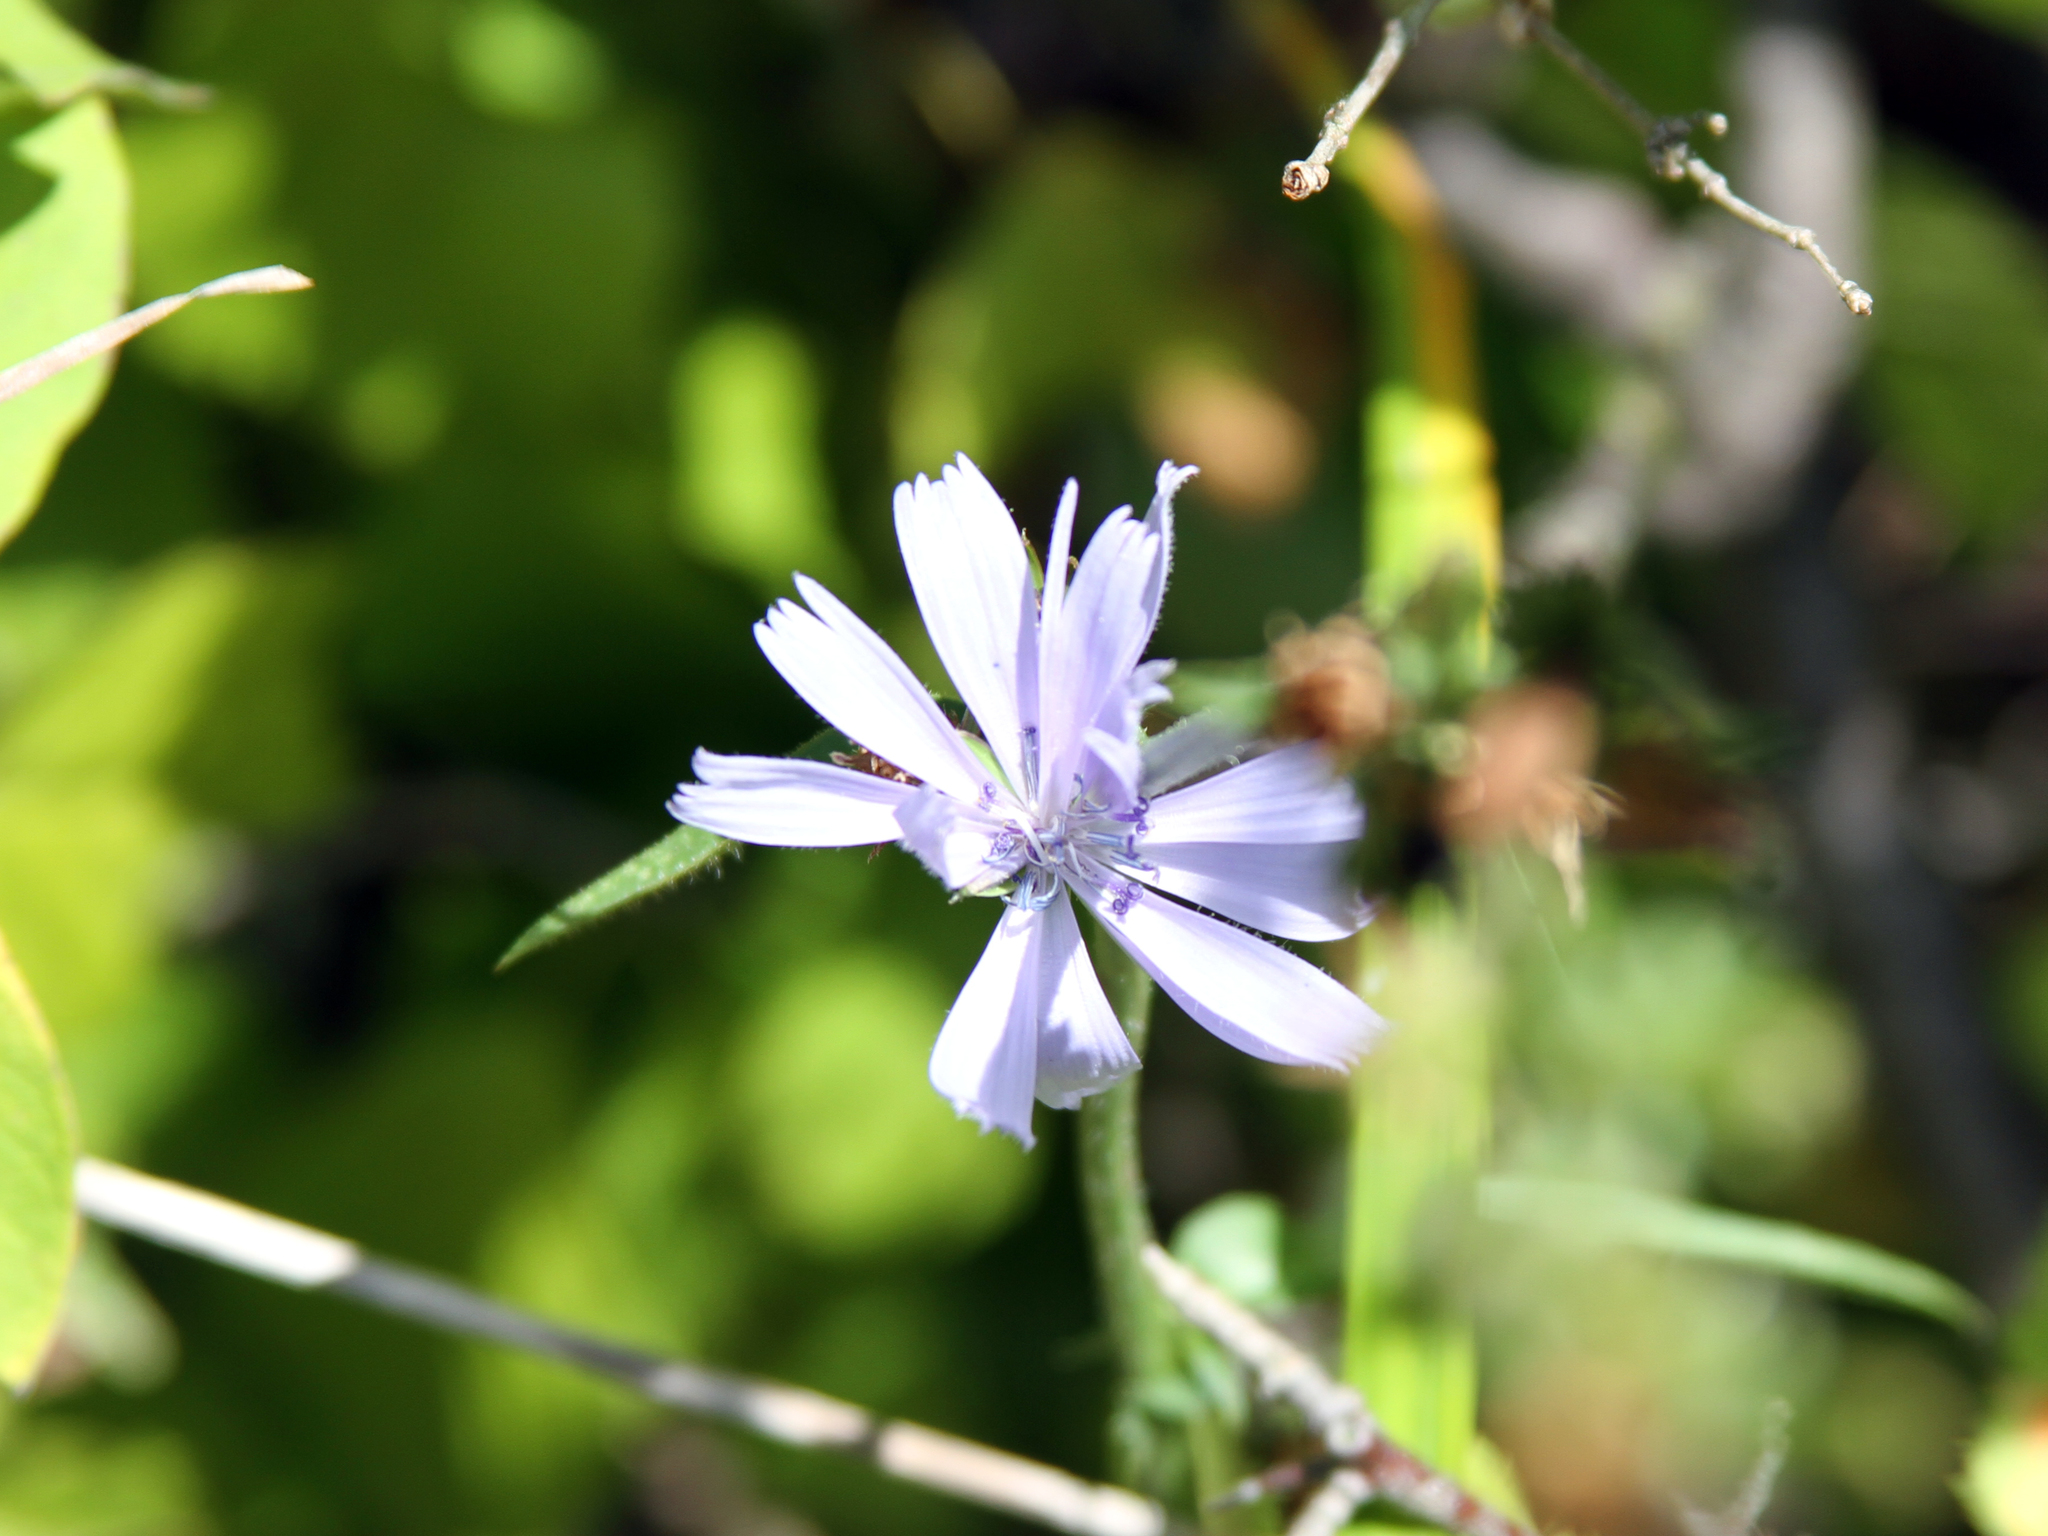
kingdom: Plantae
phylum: Tracheophyta
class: Magnoliopsida
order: Asterales
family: Asteraceae
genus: Cichorium
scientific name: Cichorium intybus
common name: Chicory
